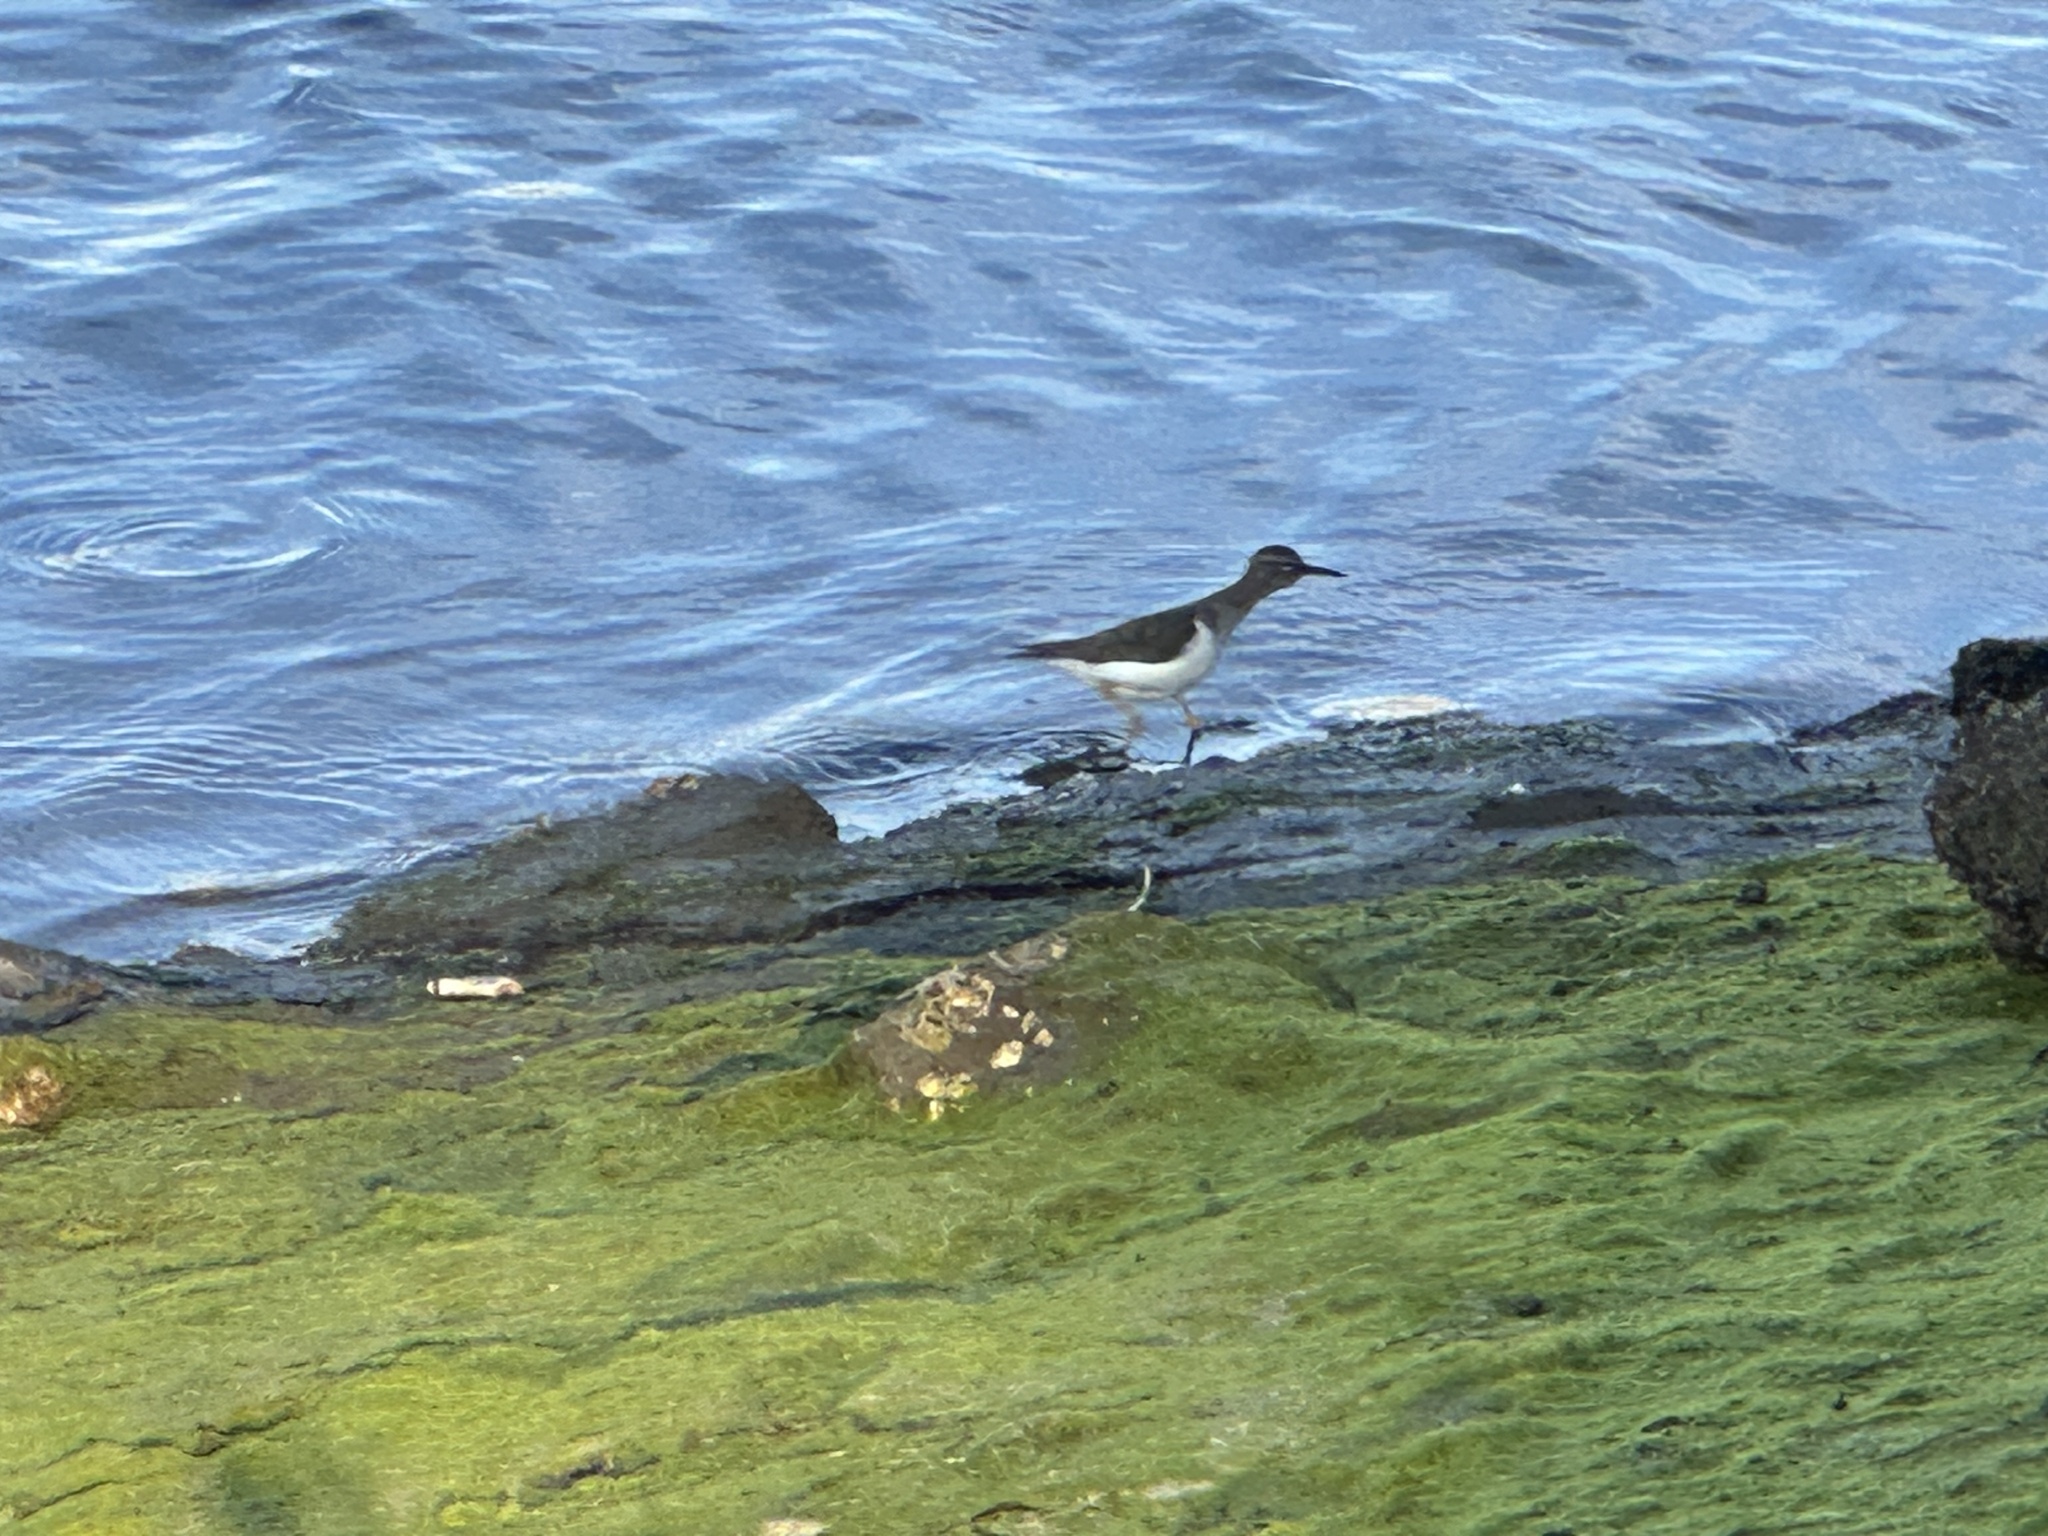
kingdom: Animalia
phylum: Chordata
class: Aves
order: Charadriiformes
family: Scolopacidae
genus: Actitis
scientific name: Actitis macularius
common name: Spotted sandpiper
